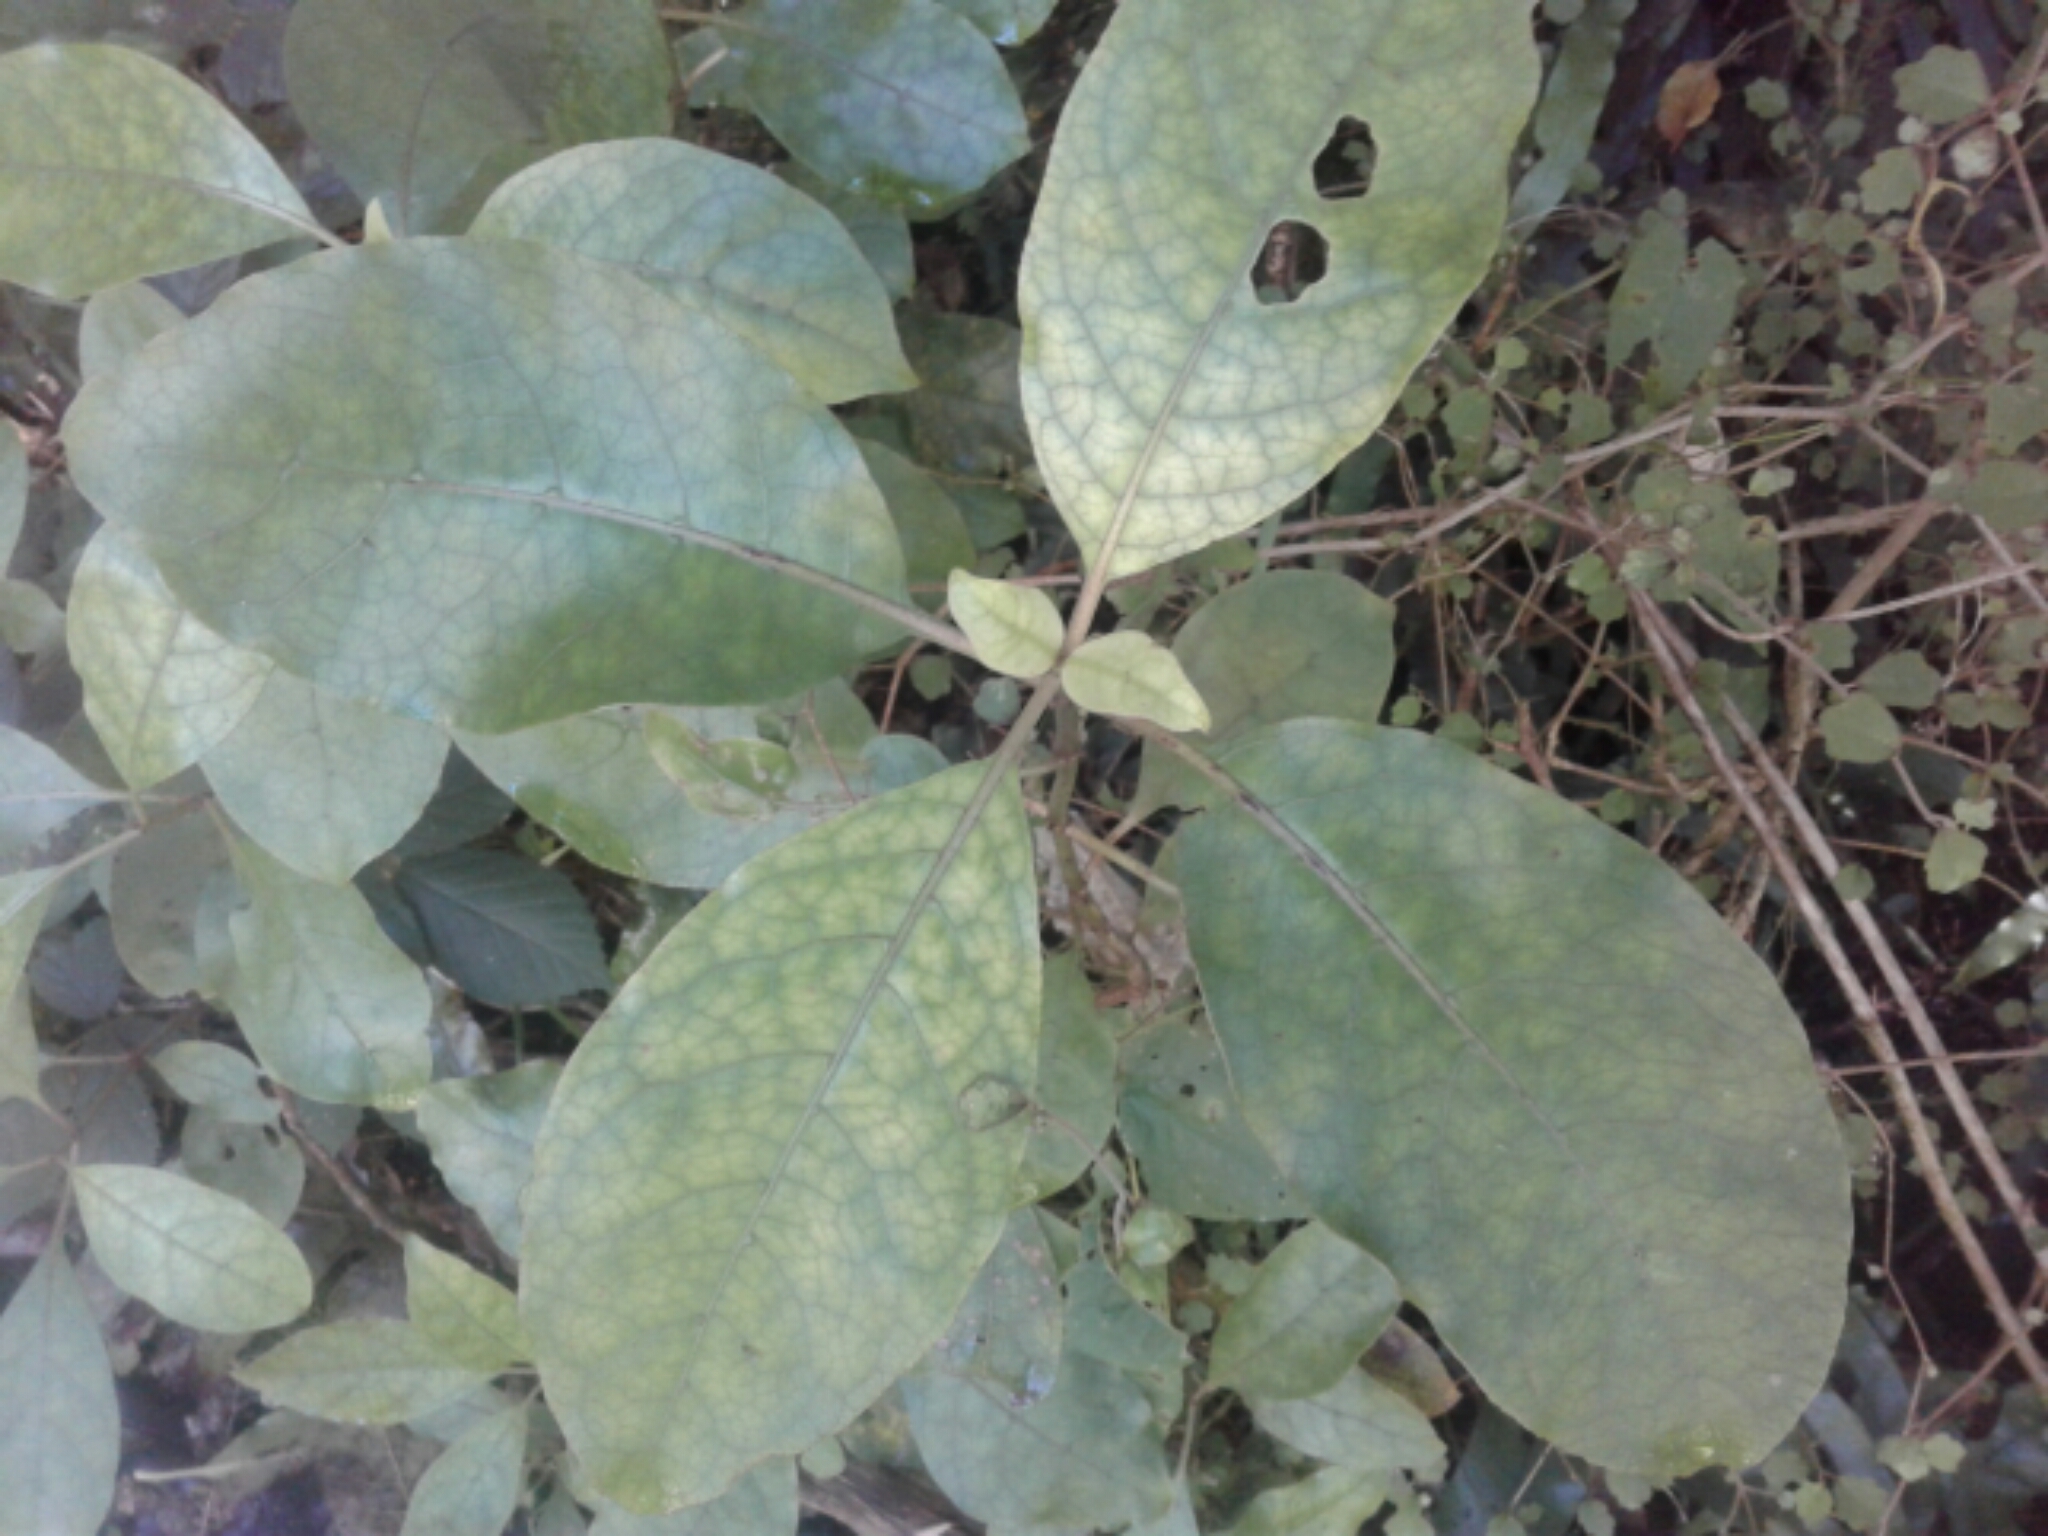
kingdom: Plantae
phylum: Tracheophyta
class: Magnoliopsida
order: Gentianales
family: Rubiaceae
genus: Coprosma
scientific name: Coprosma autumnalis
